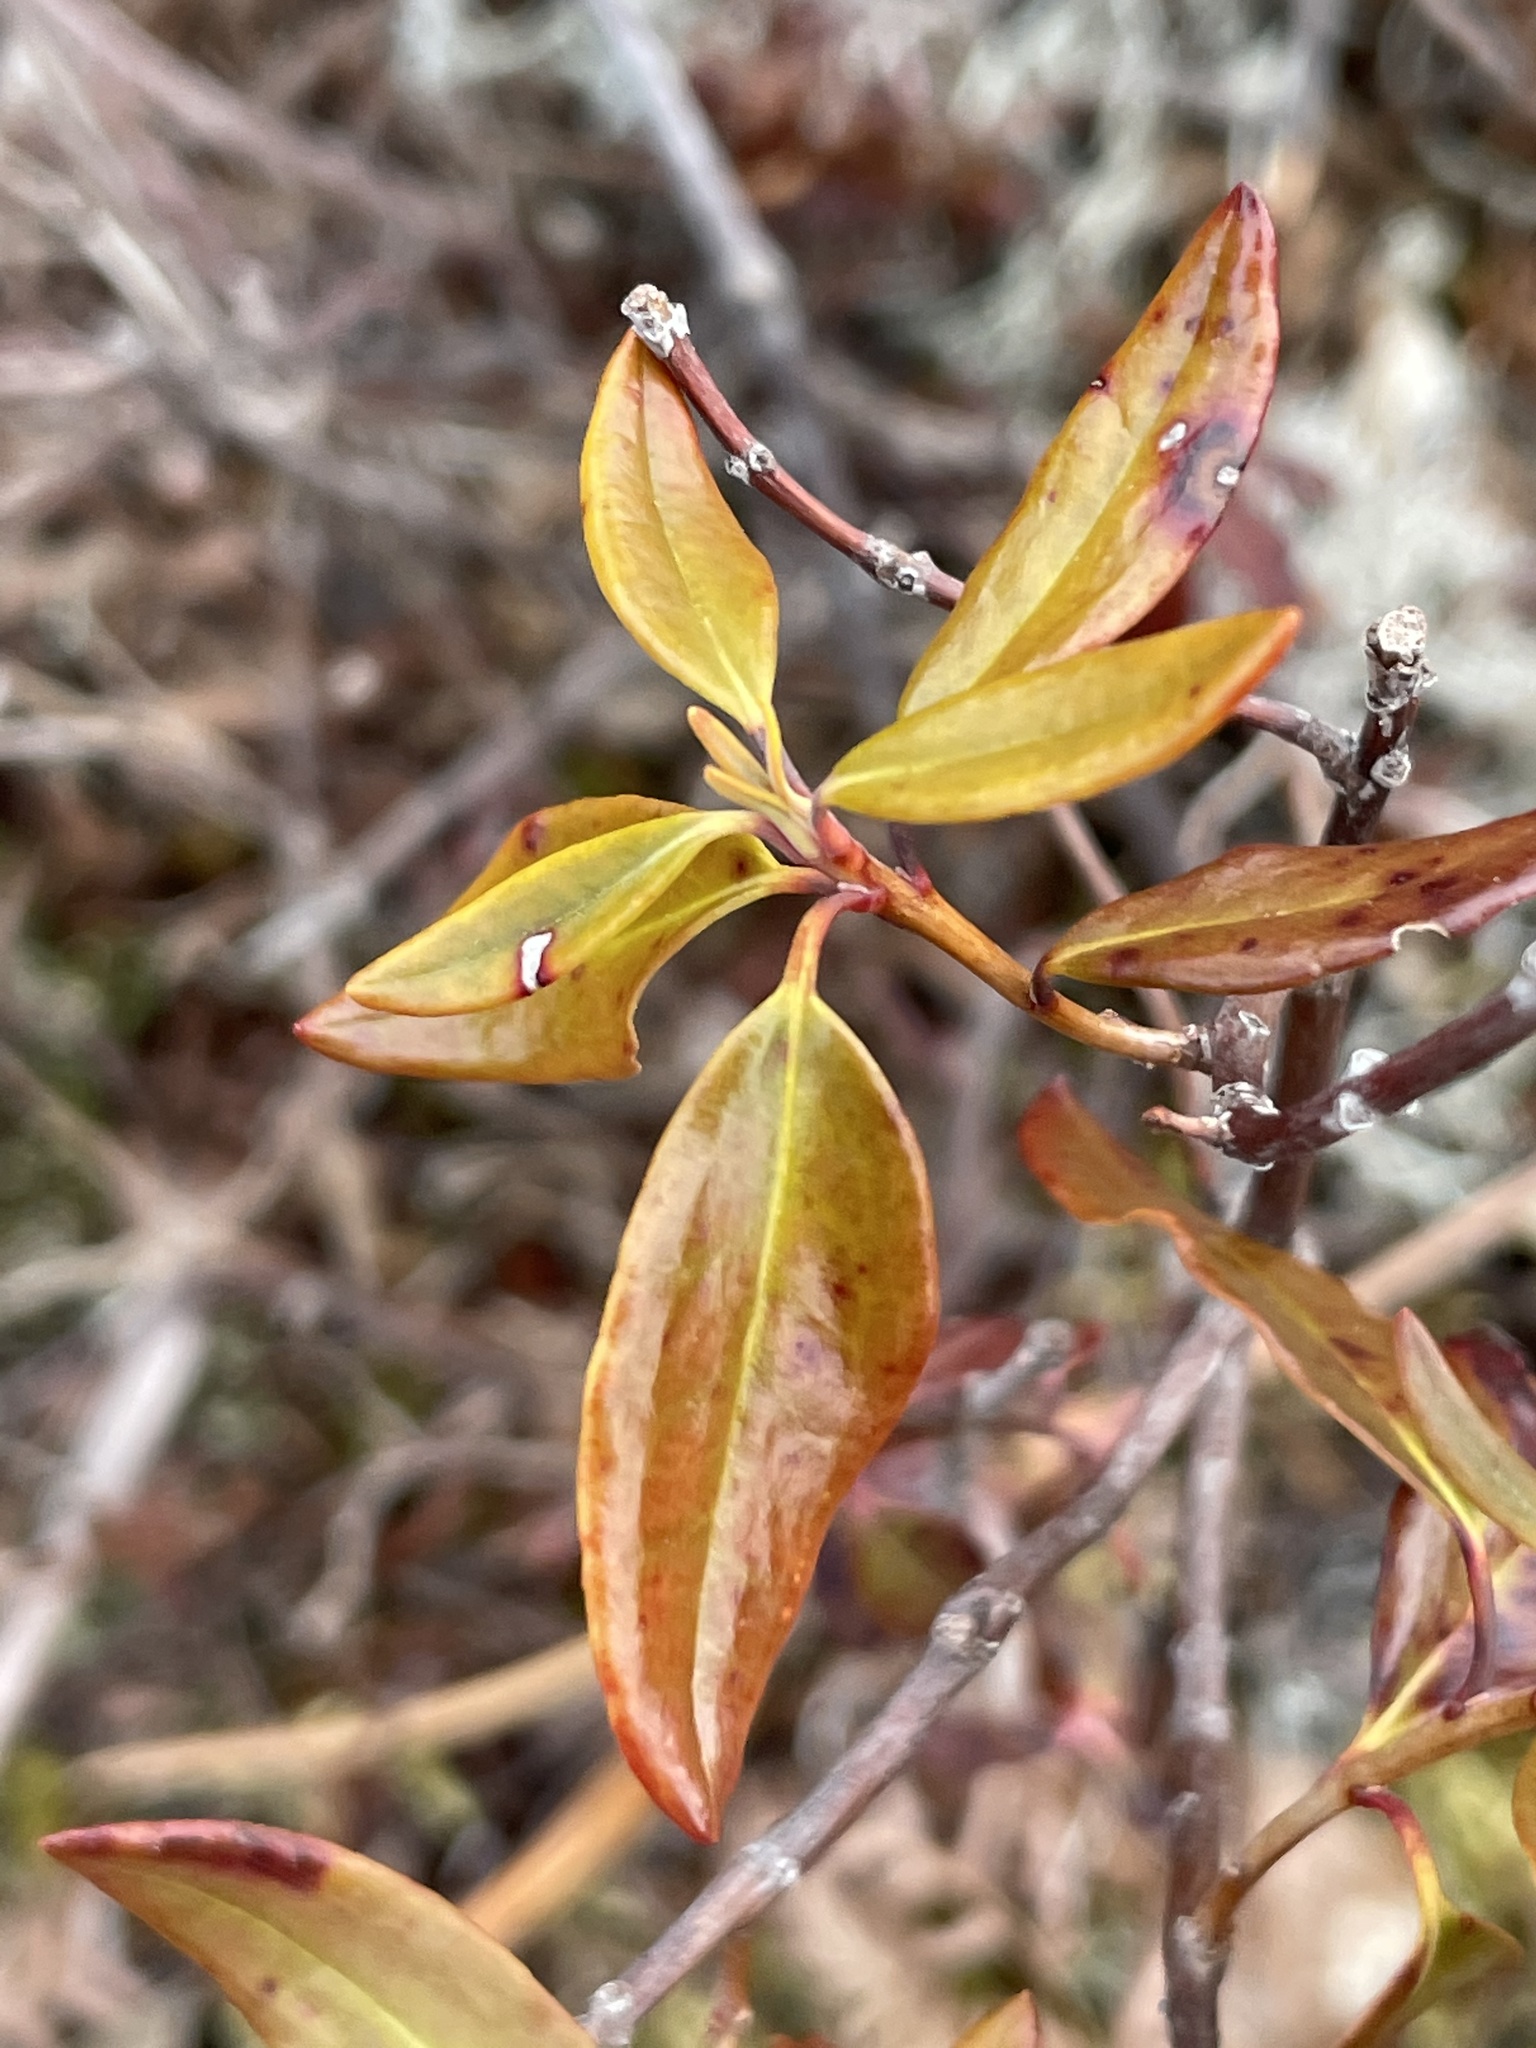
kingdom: Plantae
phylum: Tracheophyta
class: Magnoliopsida
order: Ericales
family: Ericaceae
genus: Kalmia
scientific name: Kalmia angustifolia
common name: Sheep-laurel
